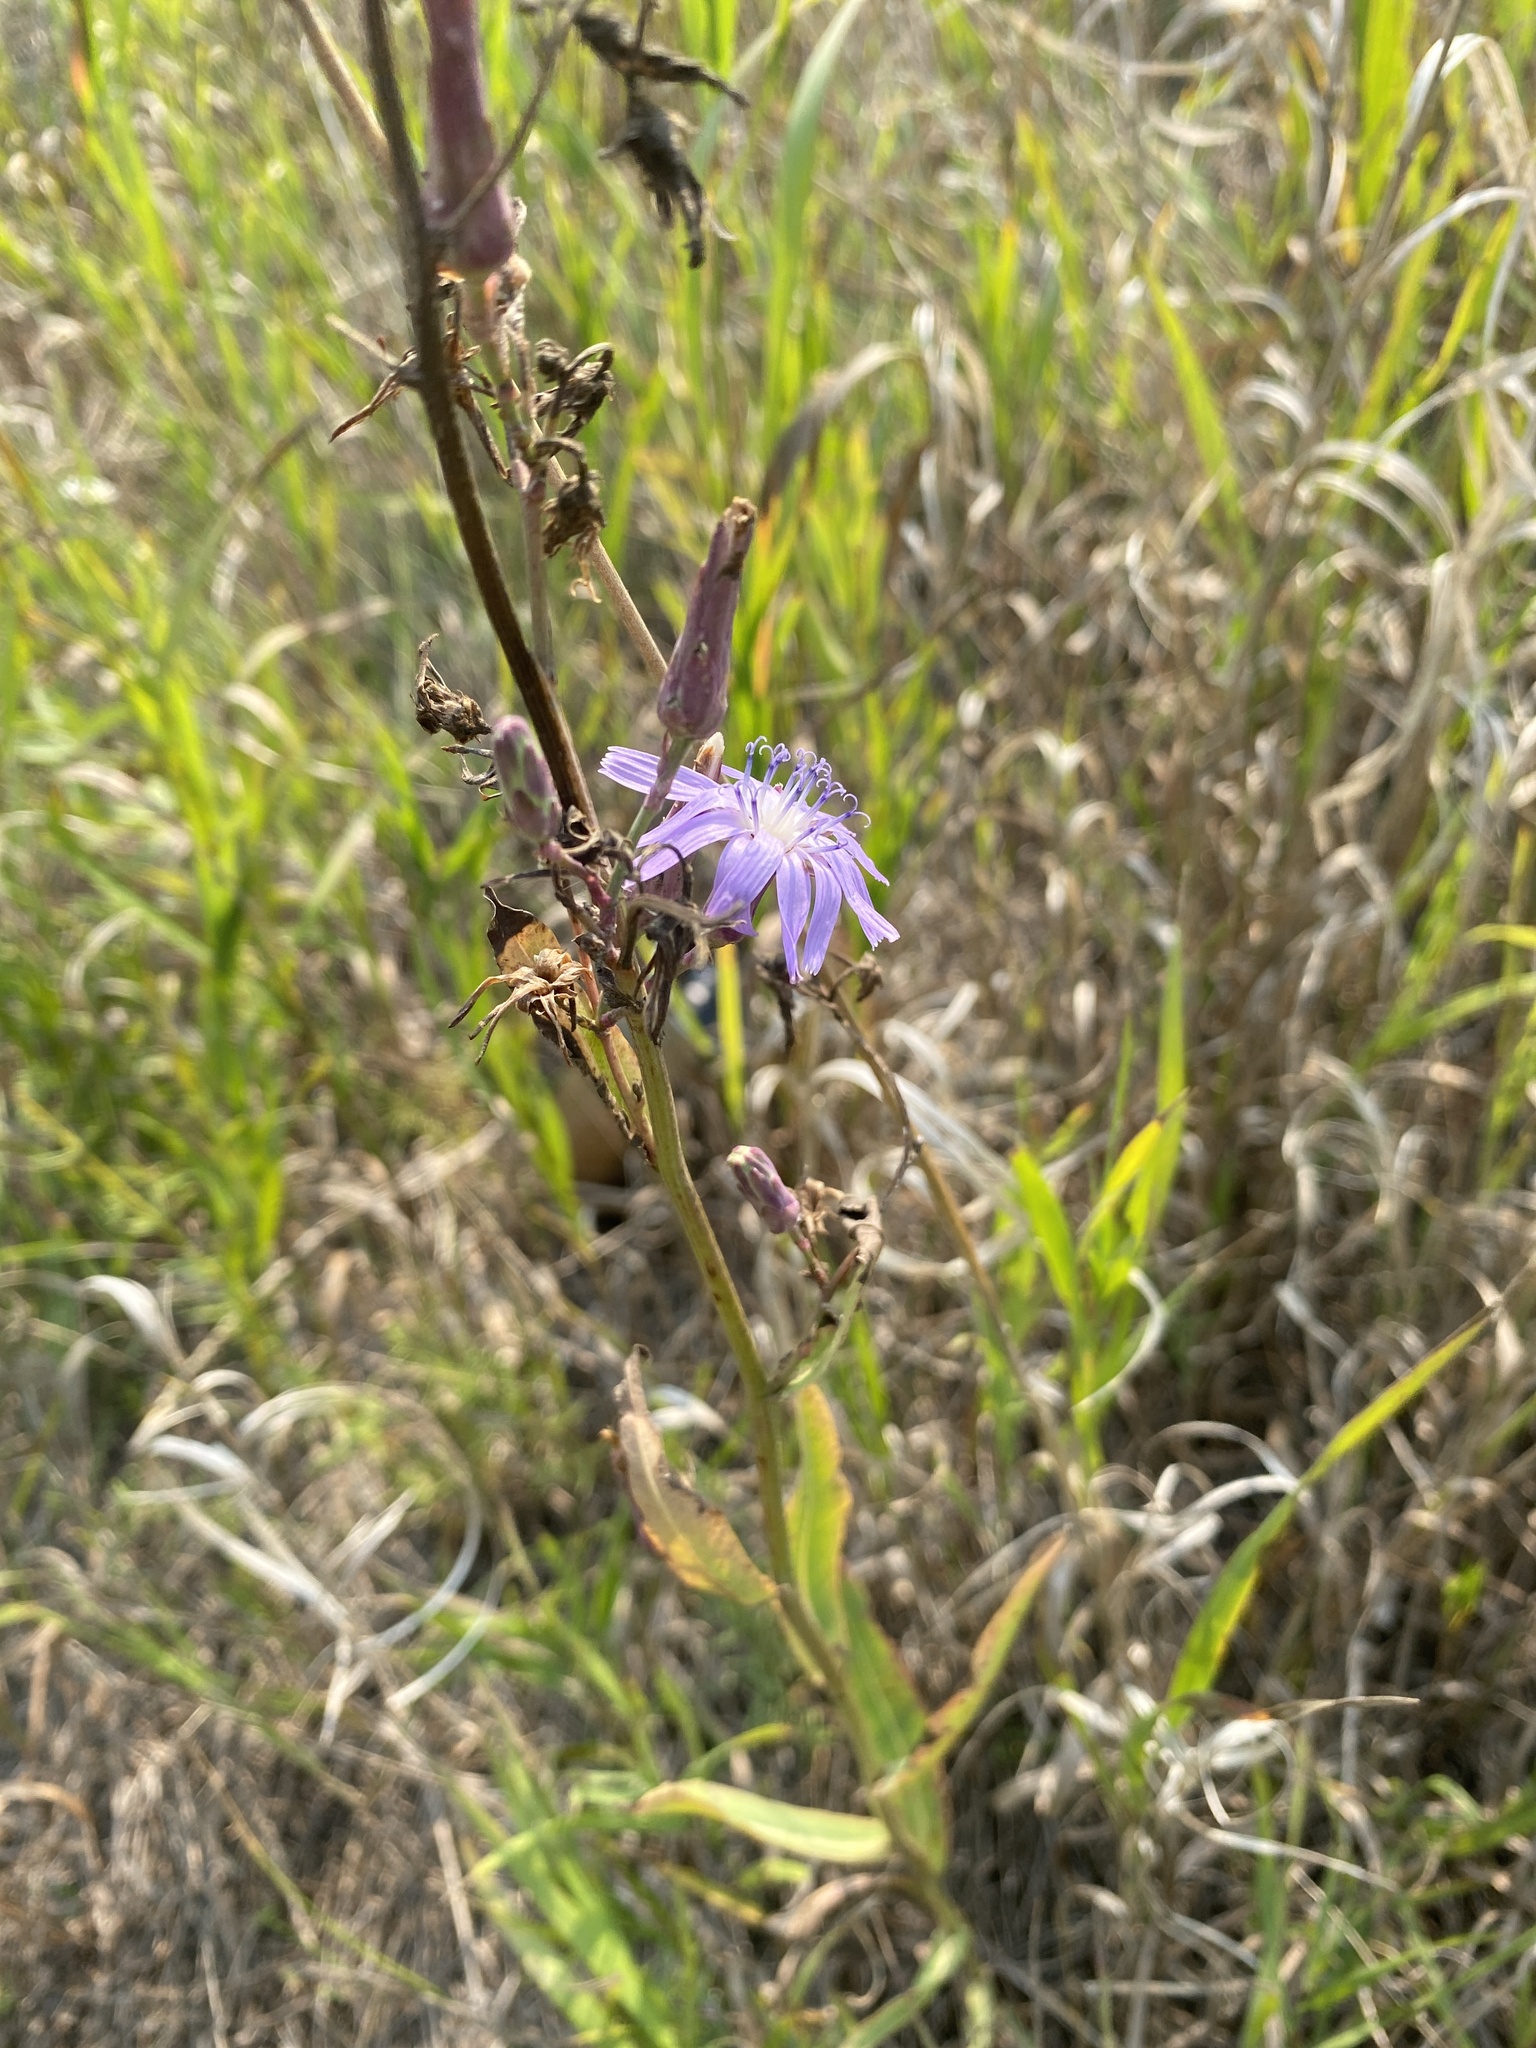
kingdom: Plantae
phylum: Tracheophyta
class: Magnoliopsida
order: Asterales
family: Asteraceae
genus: Lactuca
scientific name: Lactuca pulchella
